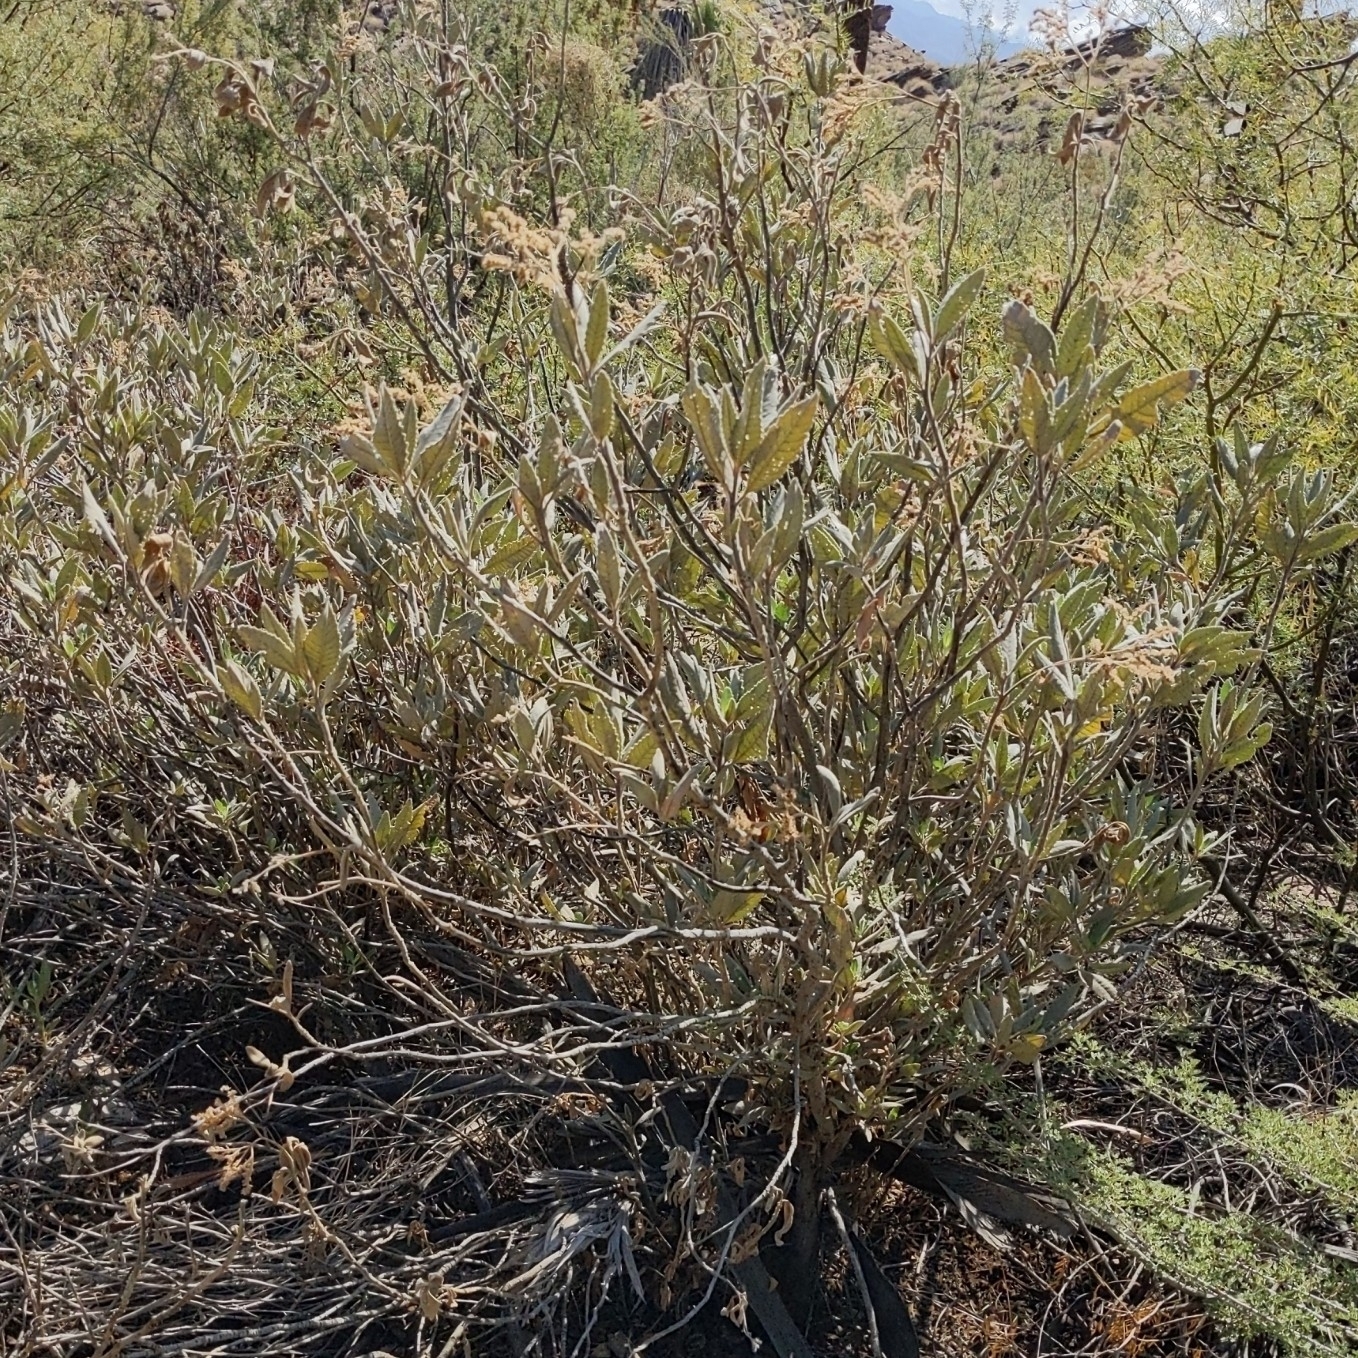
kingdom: Plantae
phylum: Tracheophyta
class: Magnoliopsida
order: Boraginales
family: Namaceae
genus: Eriodictyon
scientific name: Eriodictyon crassifolium
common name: Thick-leaf yerba-santa
